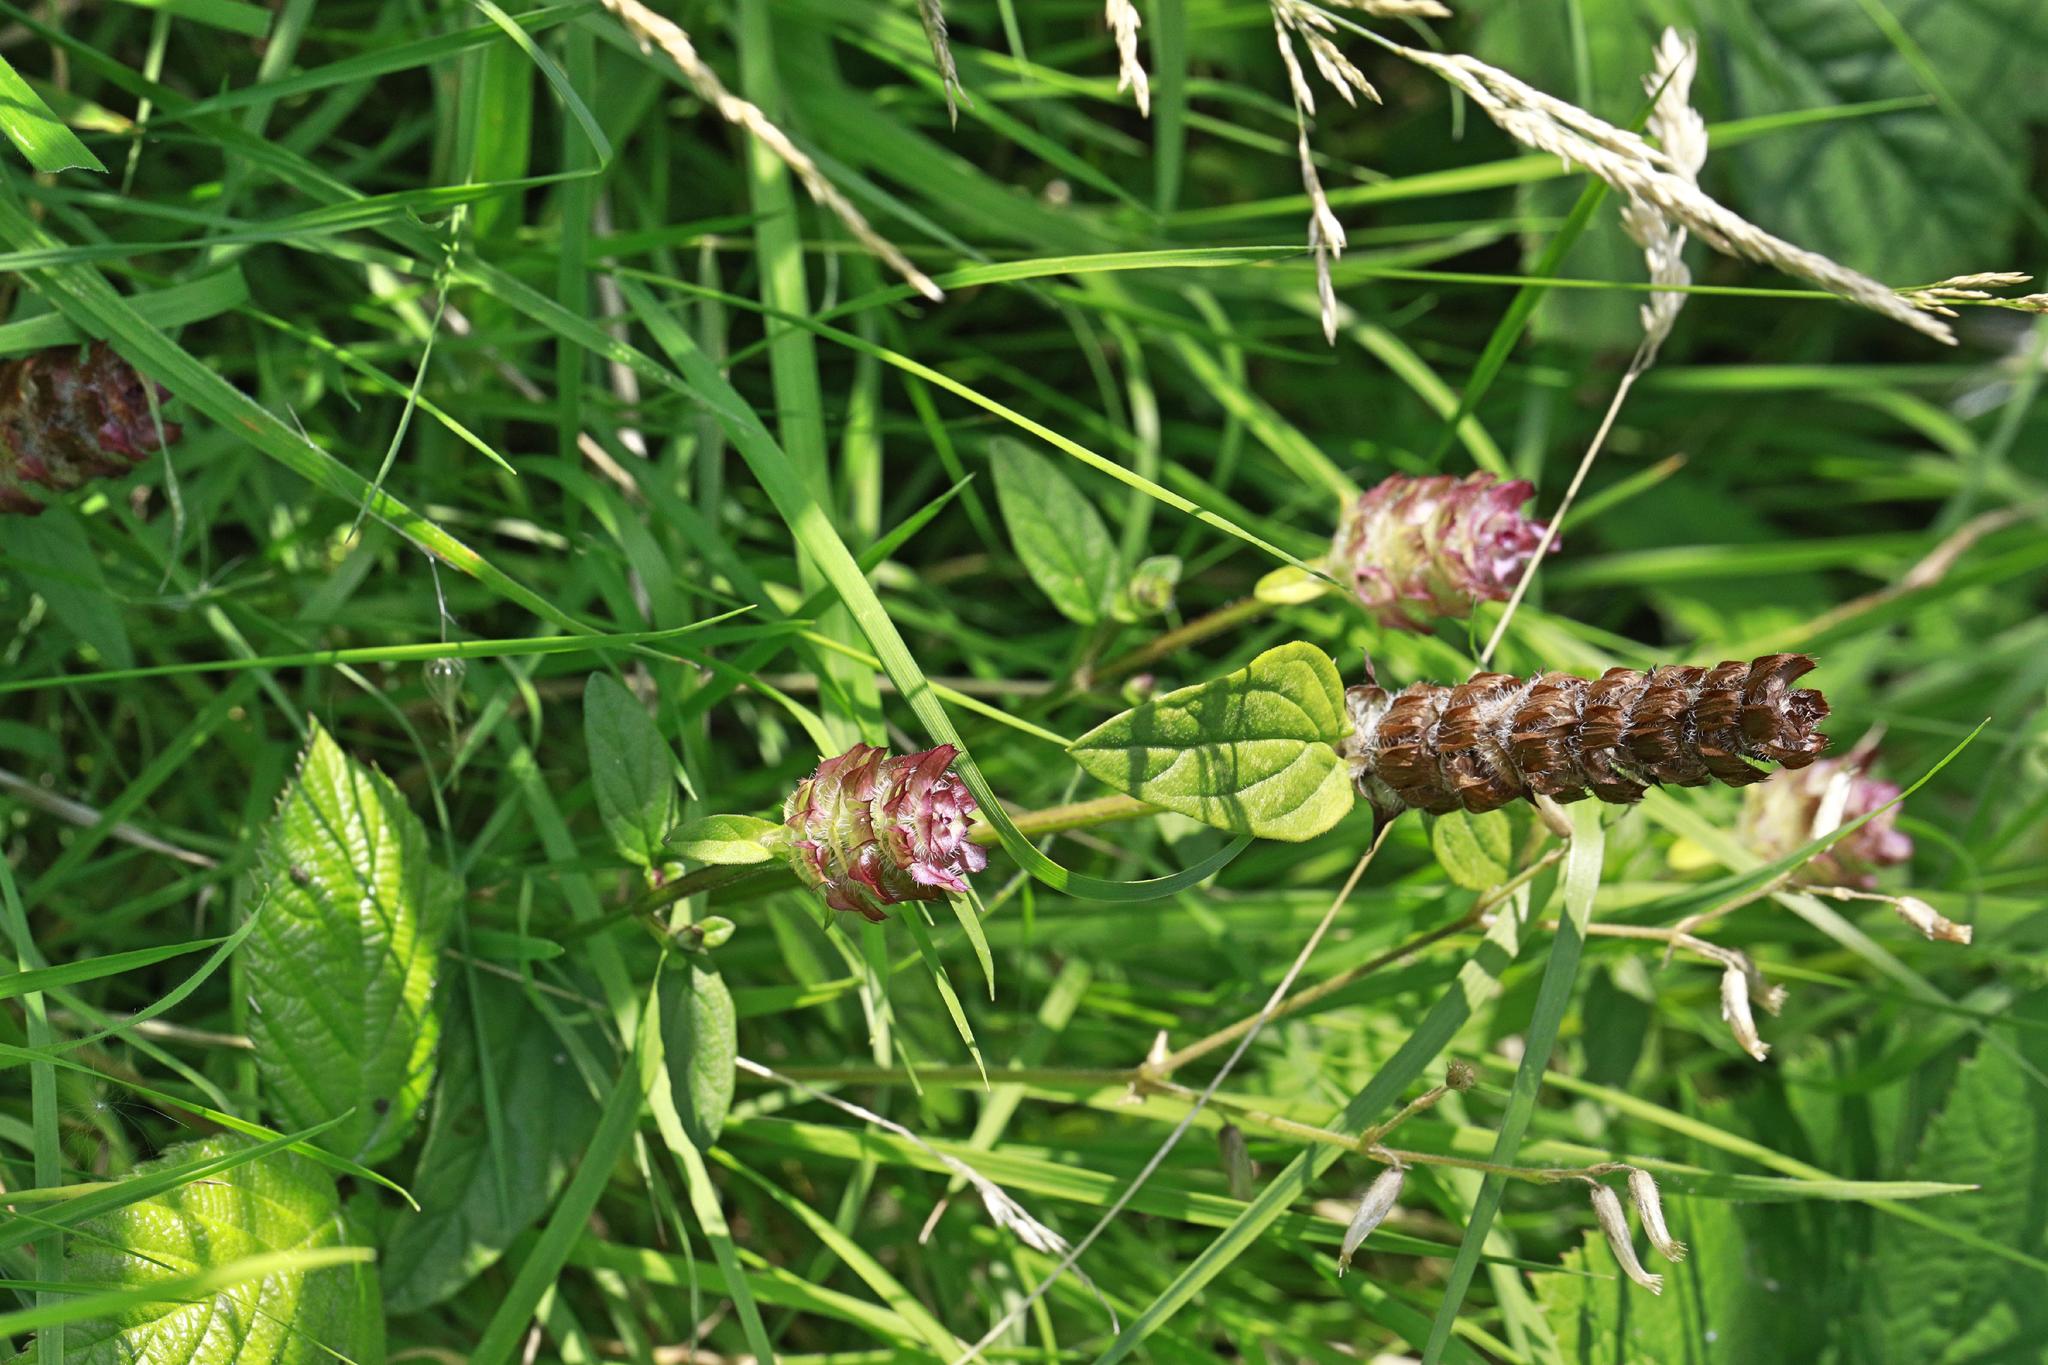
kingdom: Plantae
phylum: Tracheophyta
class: Magnoliopsida
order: Lamiales
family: Lamiaceae
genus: Prunella
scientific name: Prunella vulgaris
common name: Heal-all
